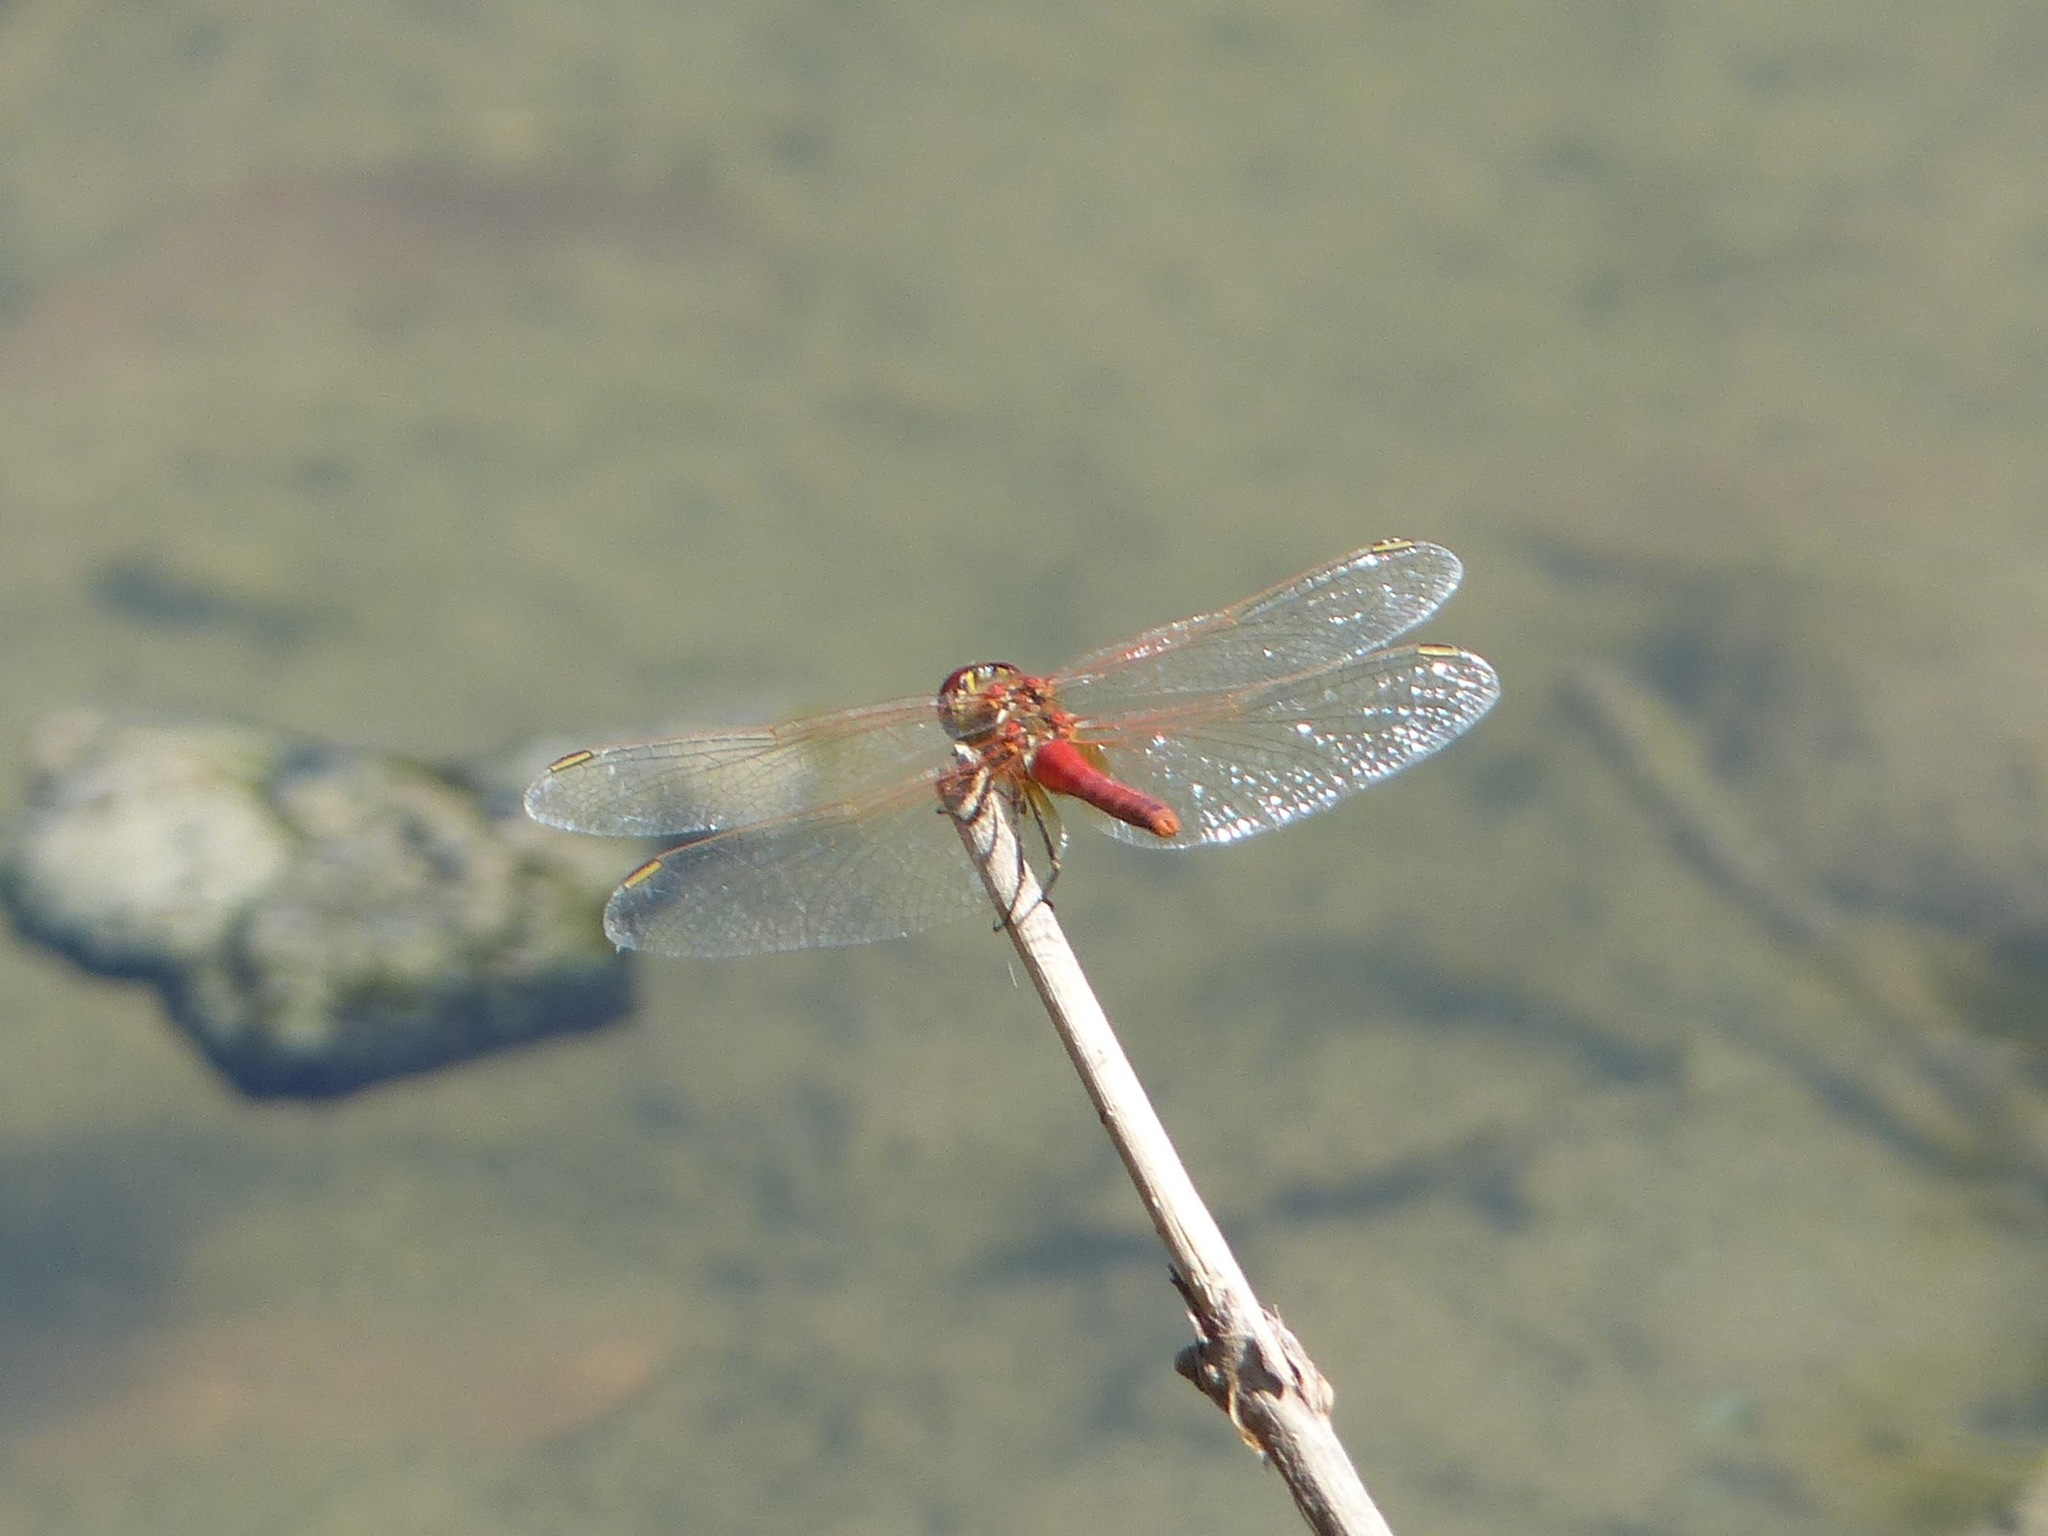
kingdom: Animalia
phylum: Arthropoda
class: Insecta
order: Odonata
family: Libellulidae
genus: Sympetrum
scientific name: Sympetrum fonscolombii
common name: Red-veined darter
